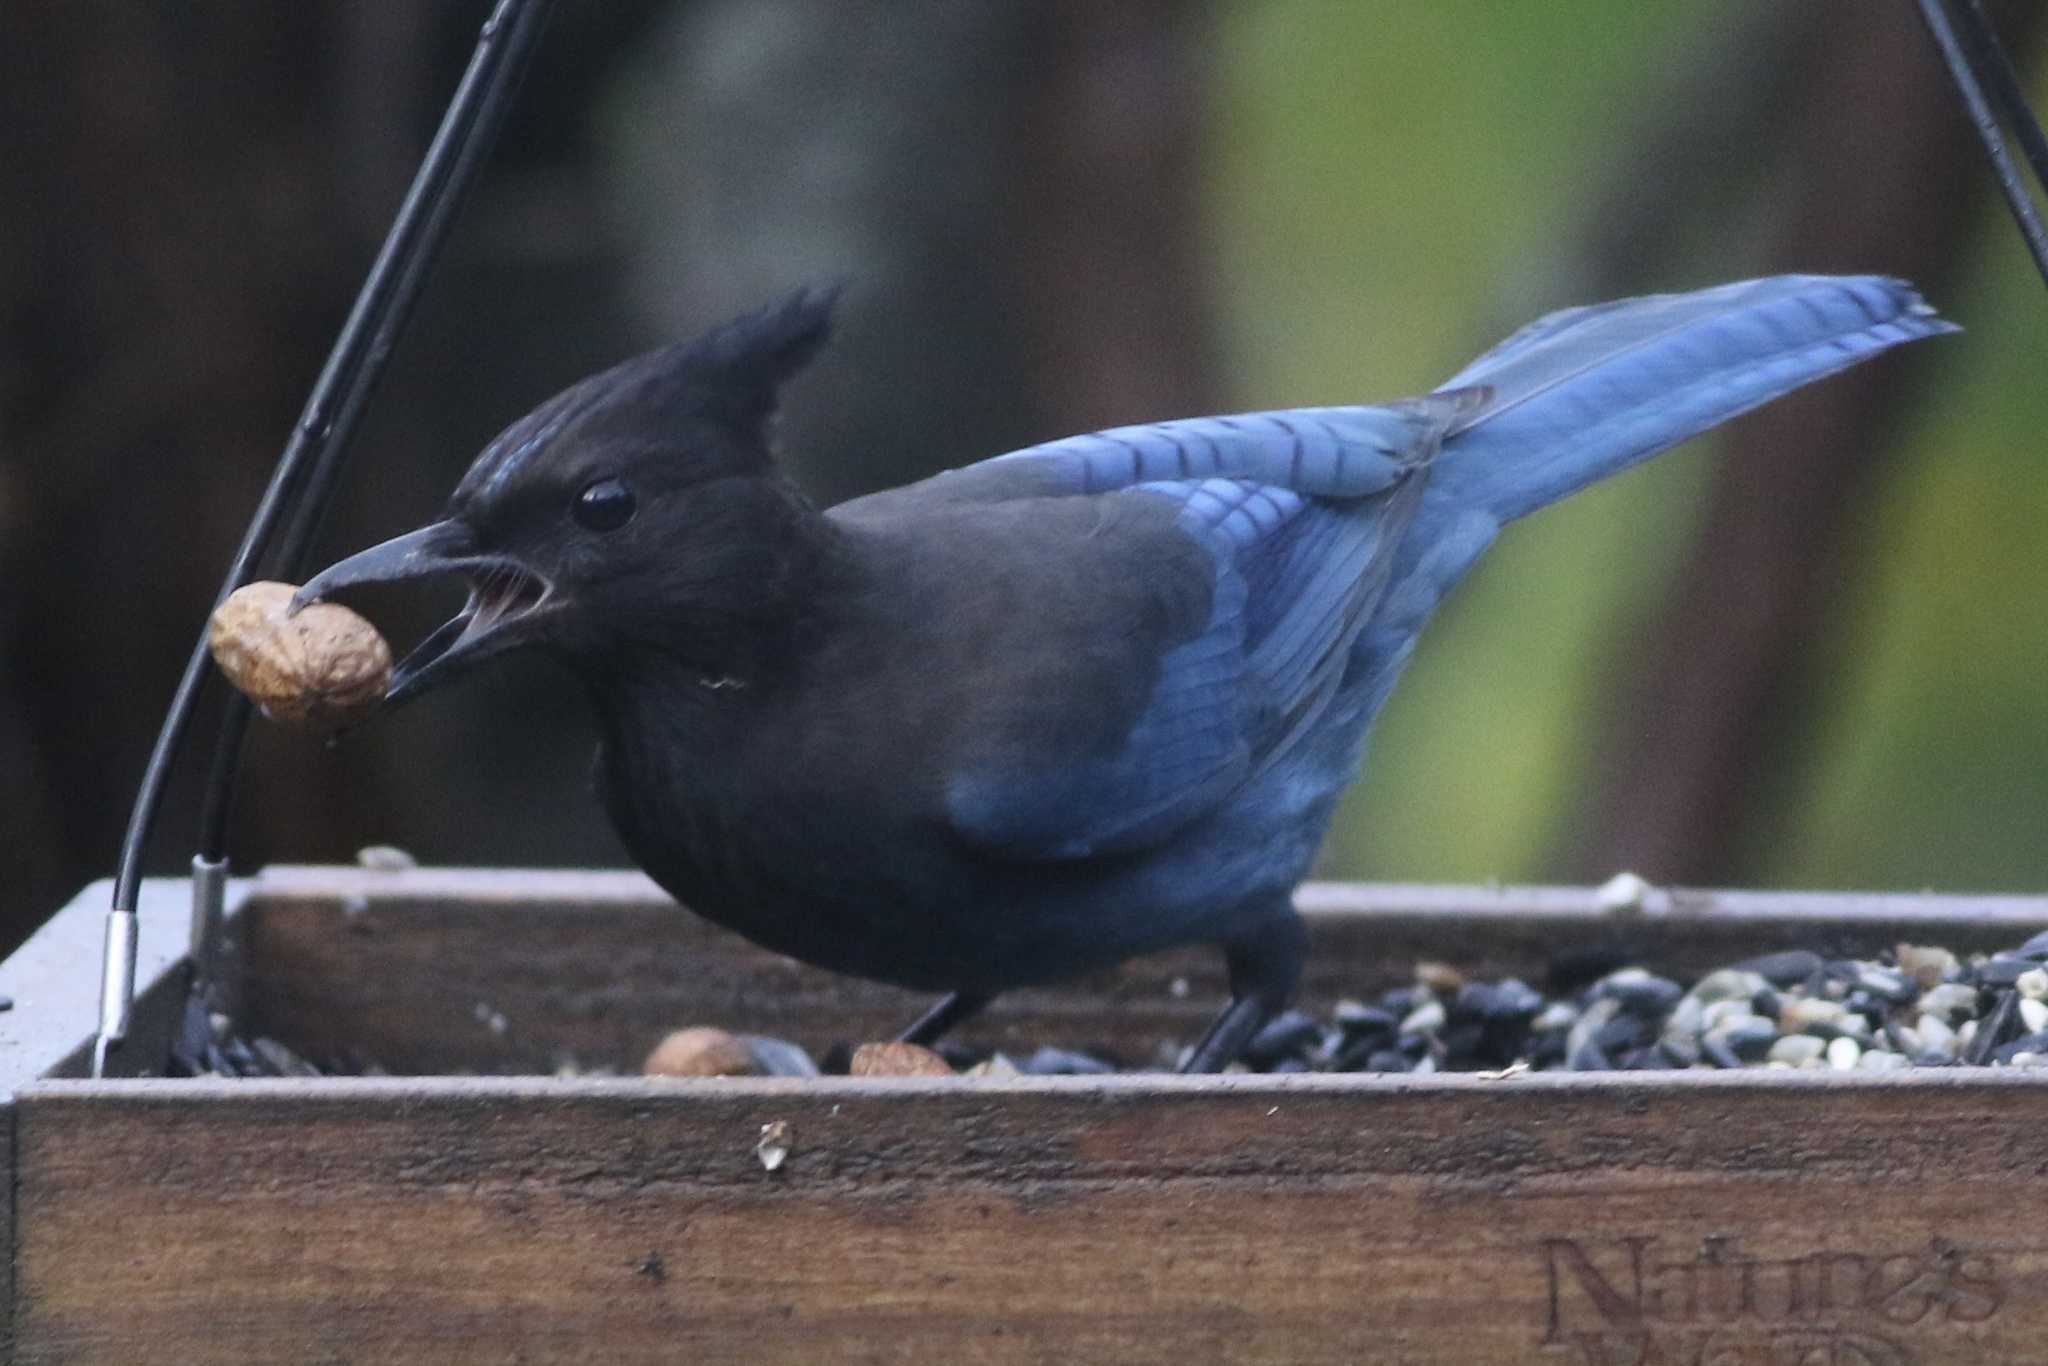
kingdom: Animalia
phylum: Chordata
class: Aves
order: Passeriformes
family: Corvidae
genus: Cyanocitta
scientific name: Cyanocitta stelleri
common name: Steller's jay
